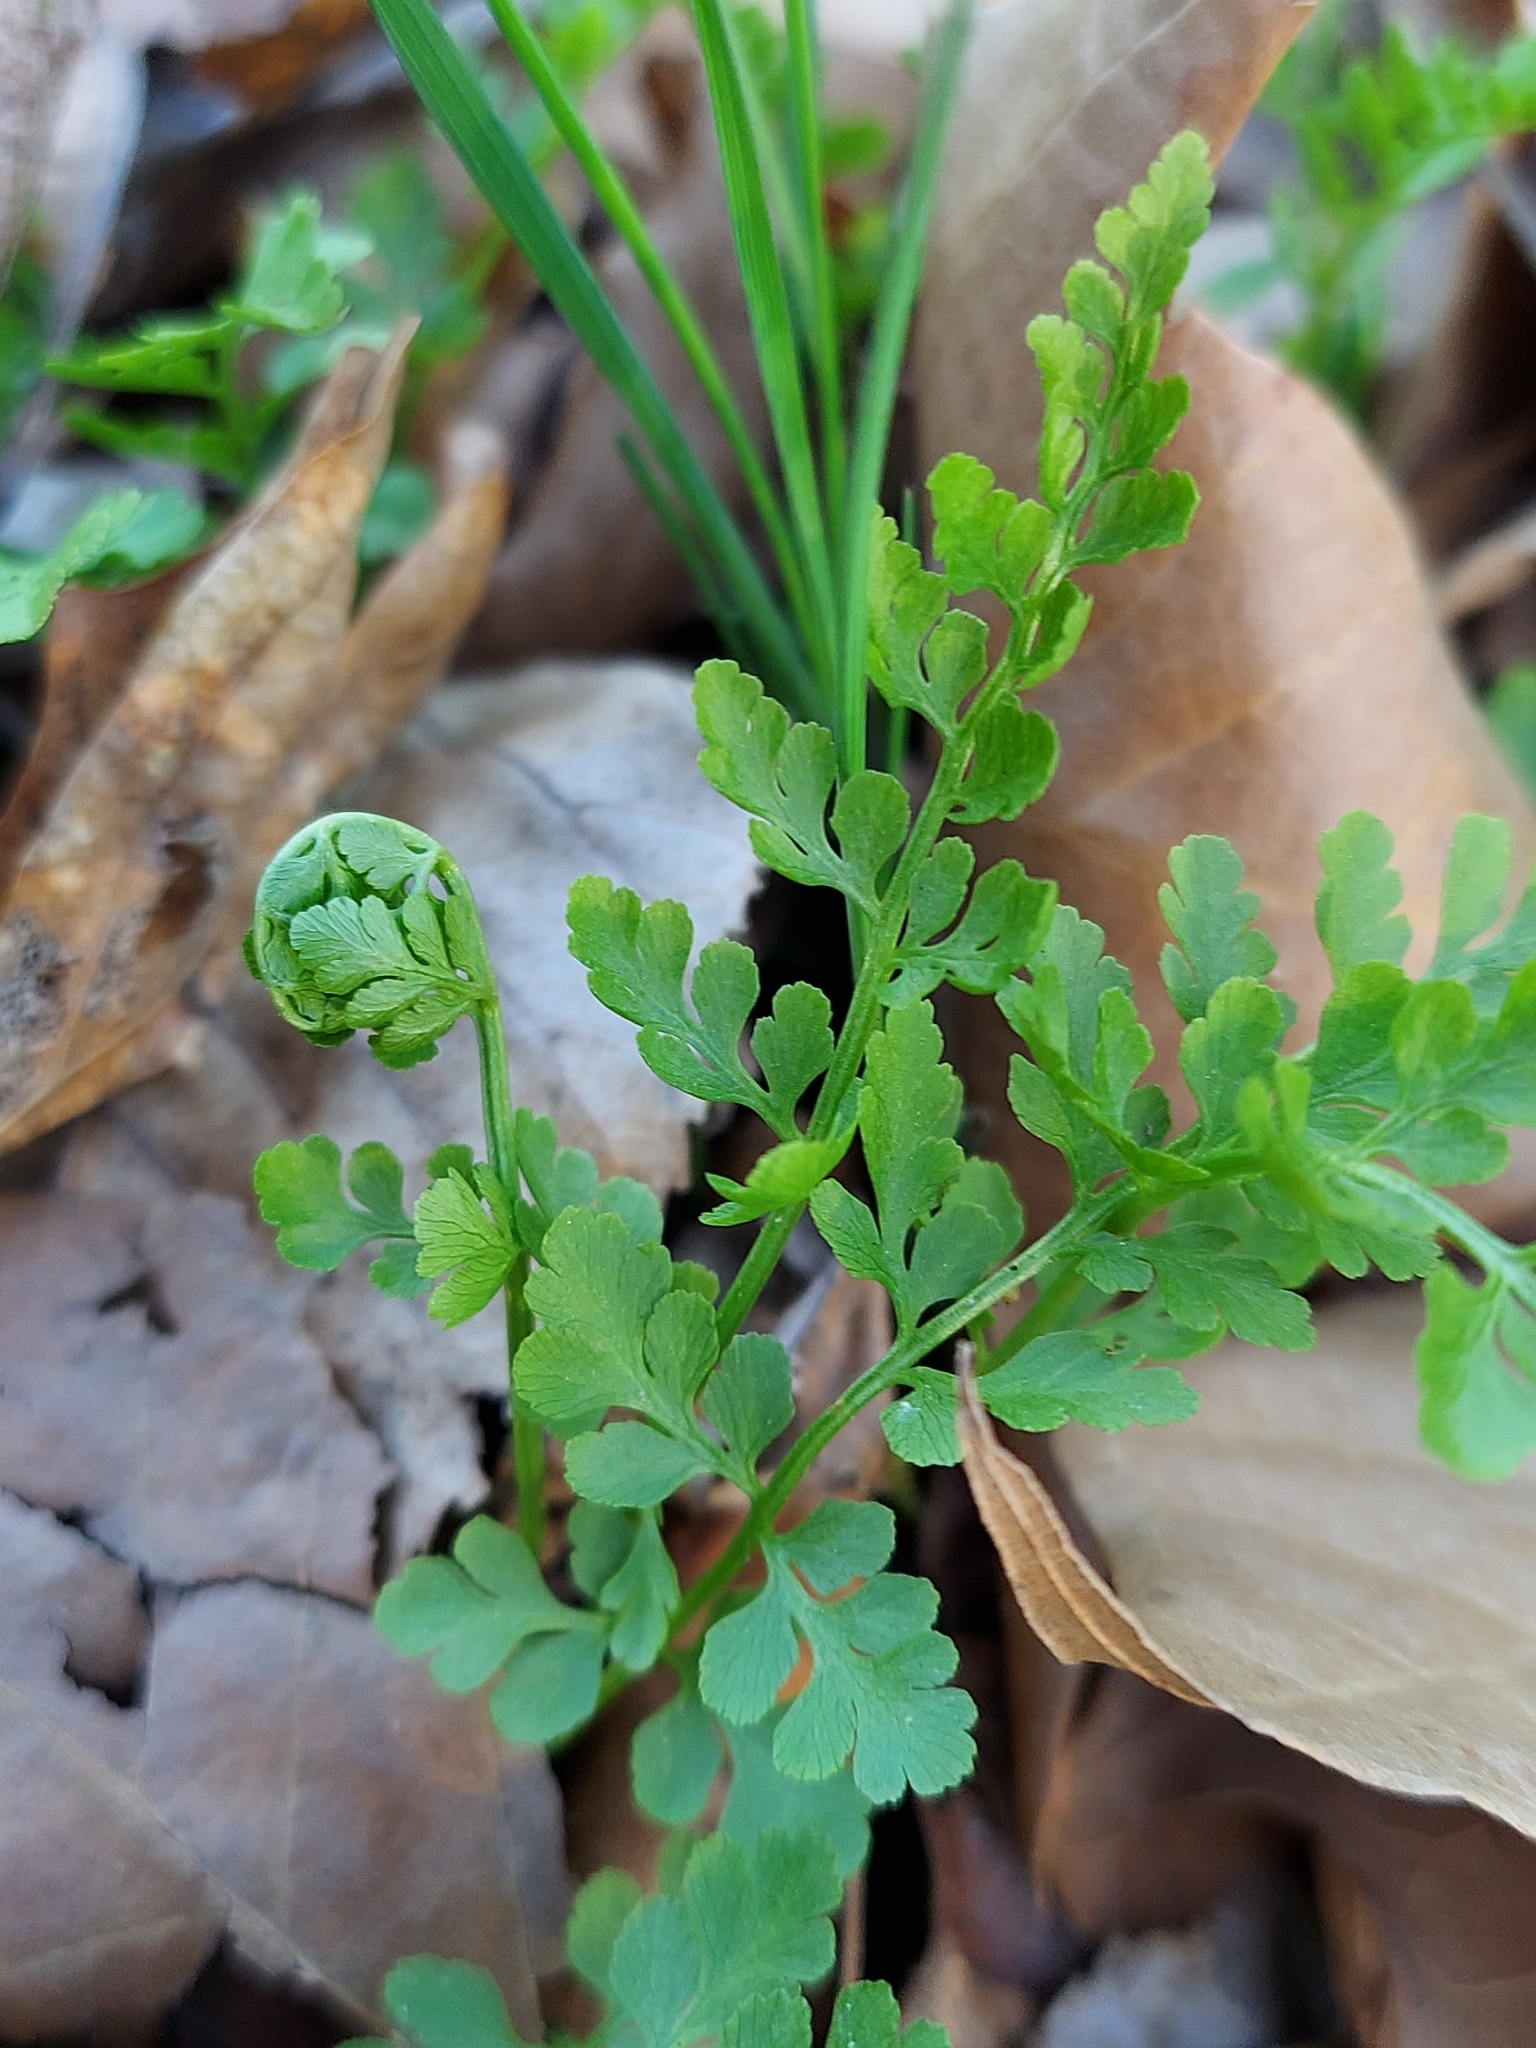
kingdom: Plantae
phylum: Tracheophyta
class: Polypodiopsida
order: Polypodiales
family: Cystopteridaceae
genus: Cystopteris
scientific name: Cystopteris protrusa
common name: Lowland brittle fern
